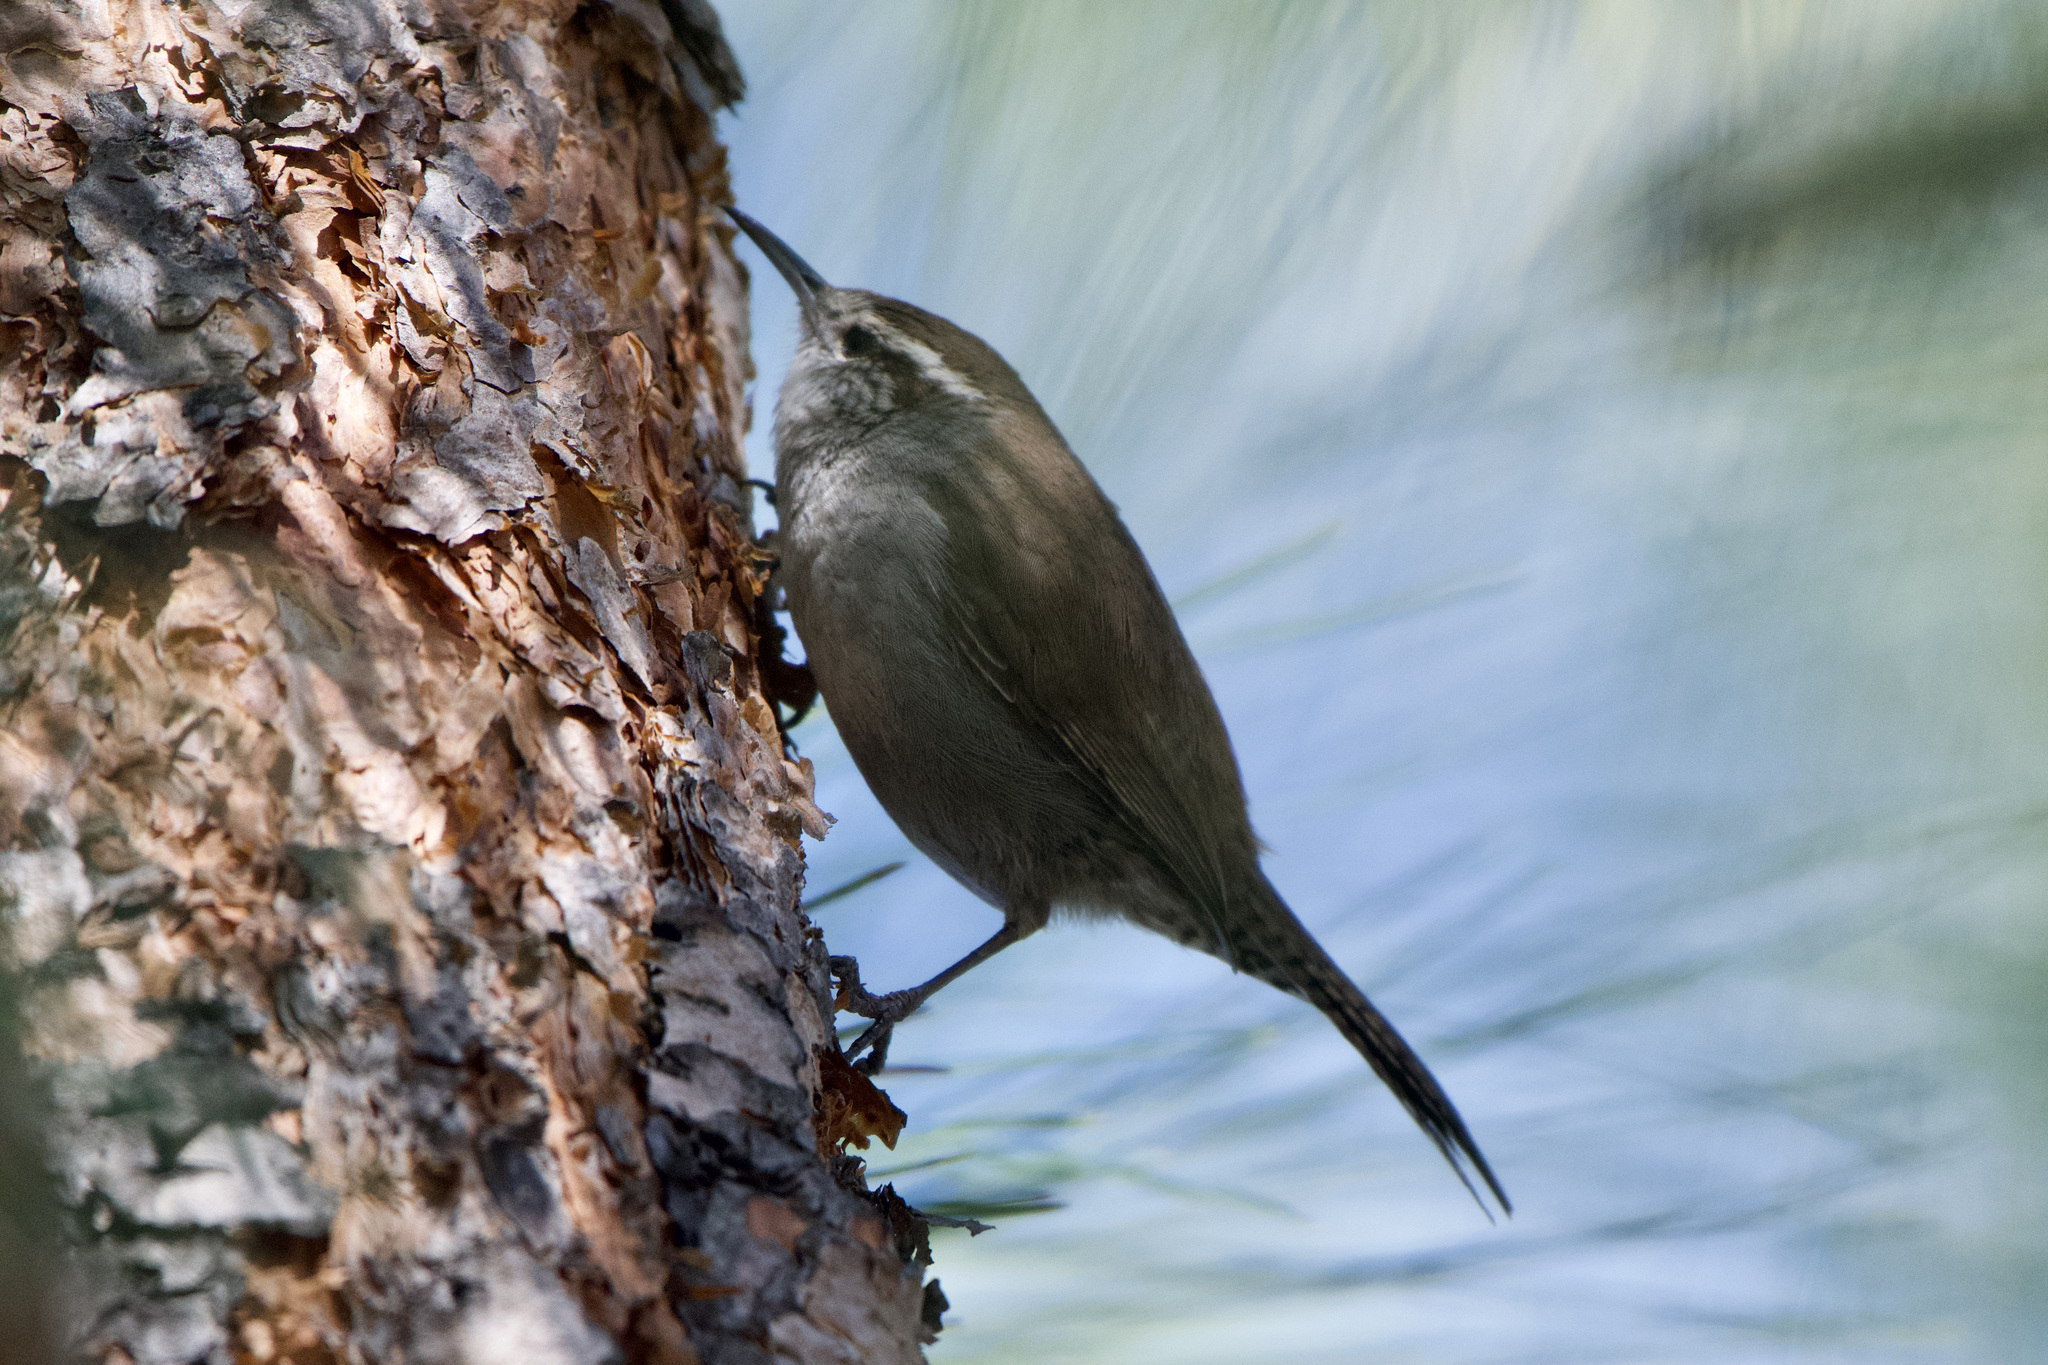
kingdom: Animalia
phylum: Chordata
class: Aves
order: Passeriformes
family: Troglodytidae
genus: Thryomanes
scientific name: Thryomanes bewickii
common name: Bewick's wren
